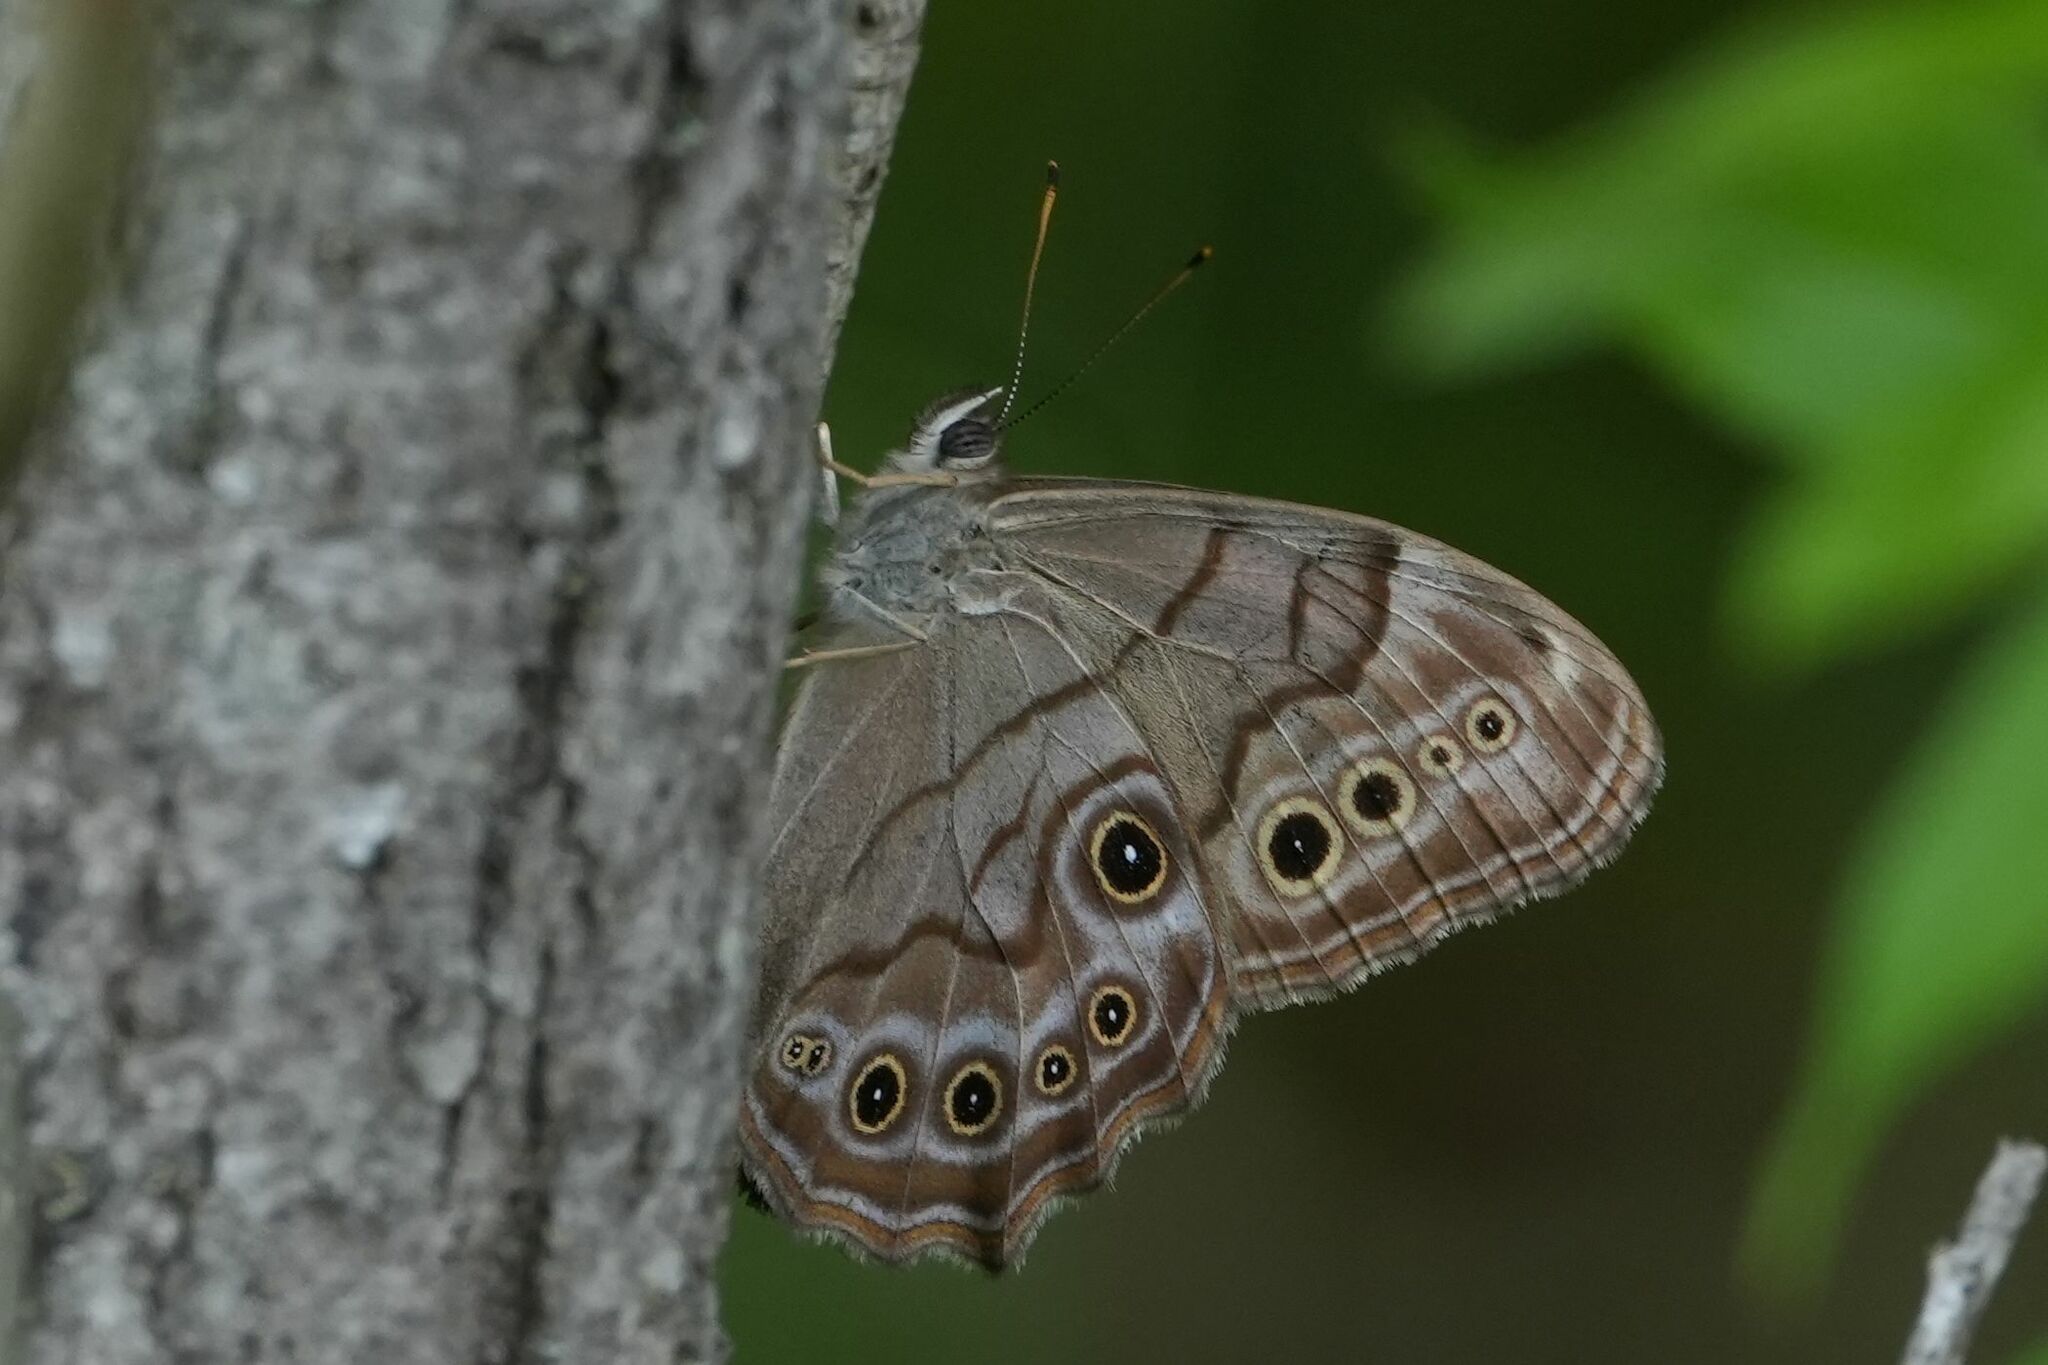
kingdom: Animalia
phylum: Arthropoda
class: Insecta
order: Lepidoptera
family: Nymphalidae
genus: Lethe
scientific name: Lethe anthedon
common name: Northern pearly-eye
